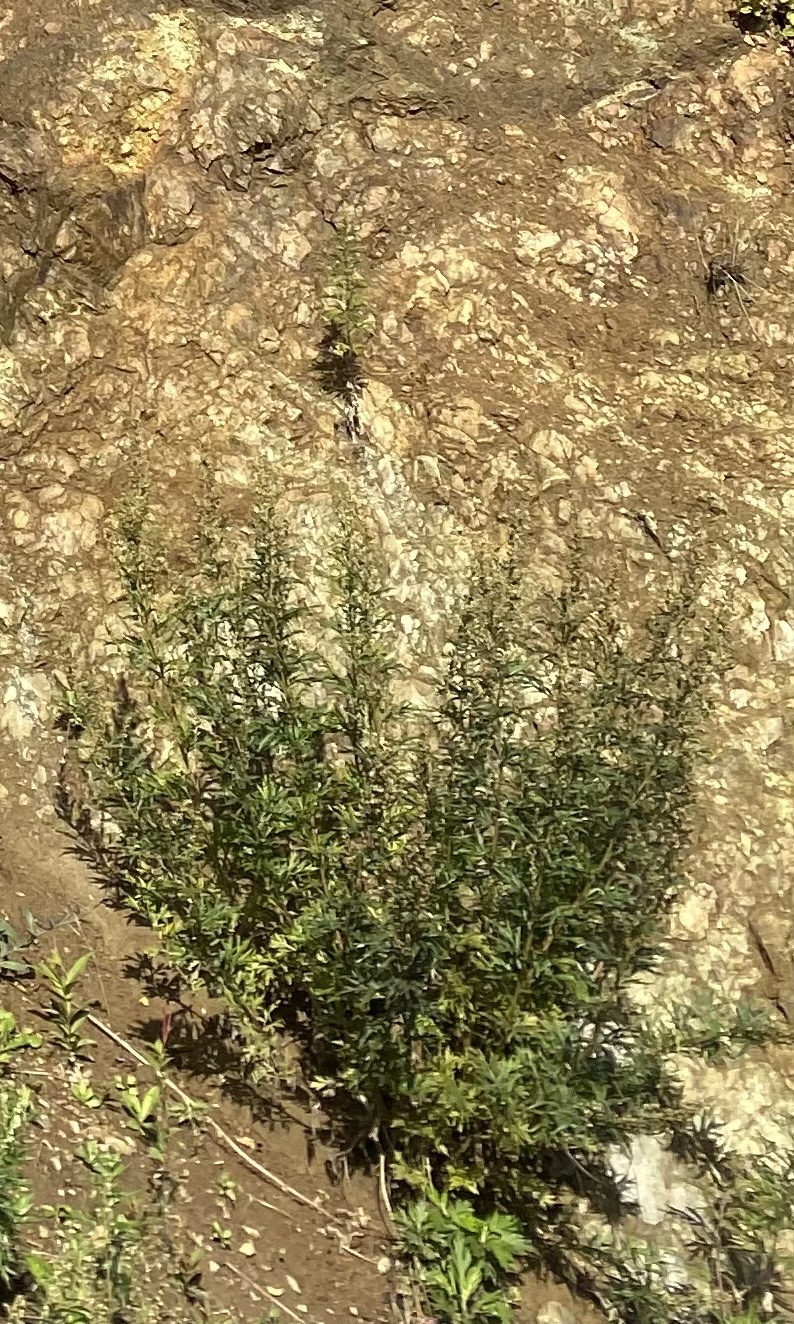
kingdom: Plantae
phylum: Tracheophyta
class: Magnoliopsida
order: Asterales
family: Asteraceae
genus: Artemisia
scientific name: Artemisia vulgaris
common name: Mugwort
